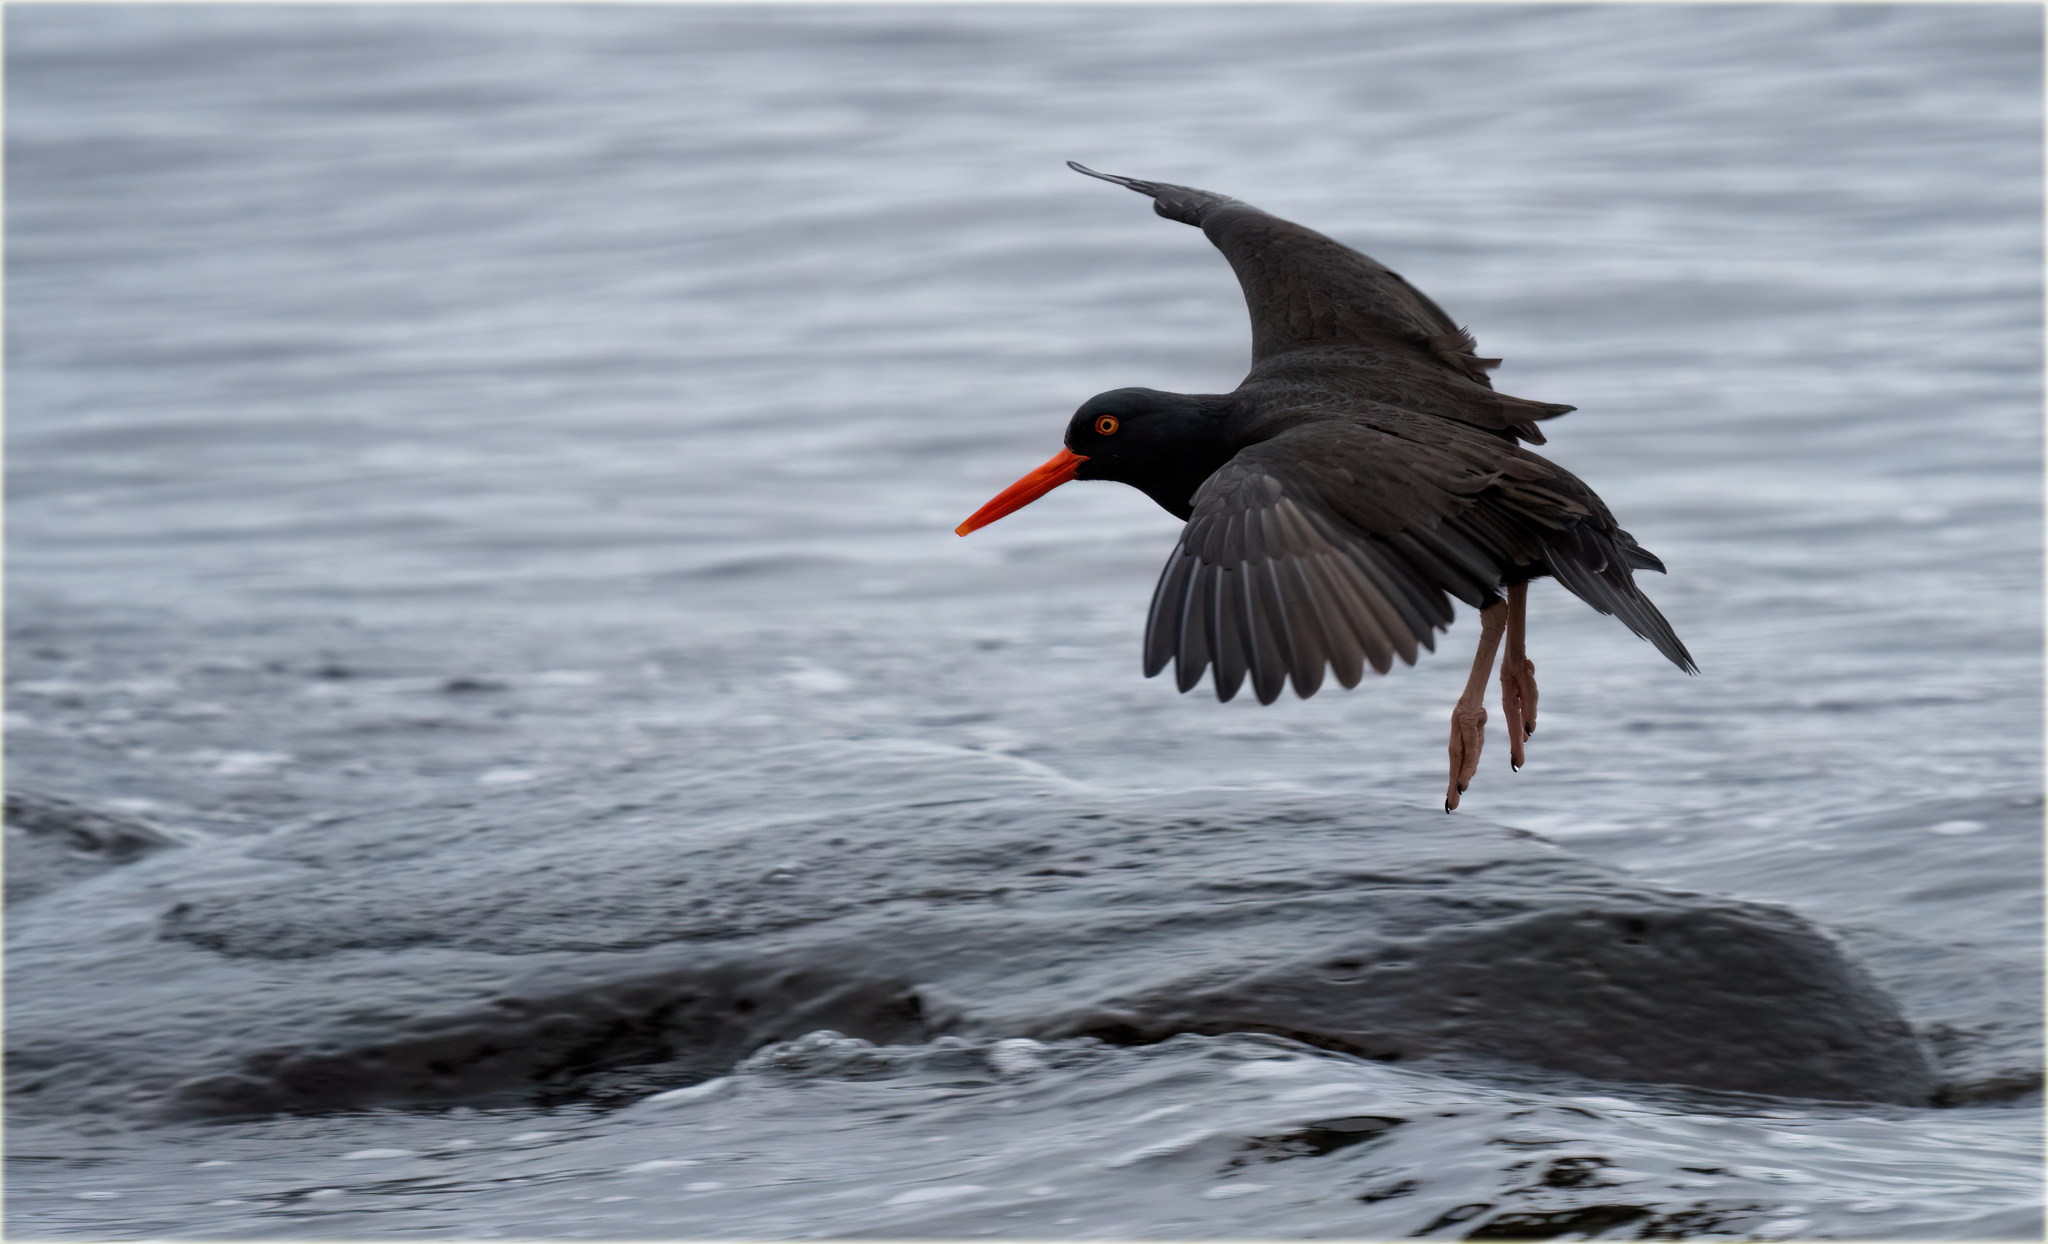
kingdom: Animalia
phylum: Chordata
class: Aves
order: Charadriiformes
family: Haematopodidae
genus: Haematopus
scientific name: Haematopus bachmani
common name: Black oystercatcher
